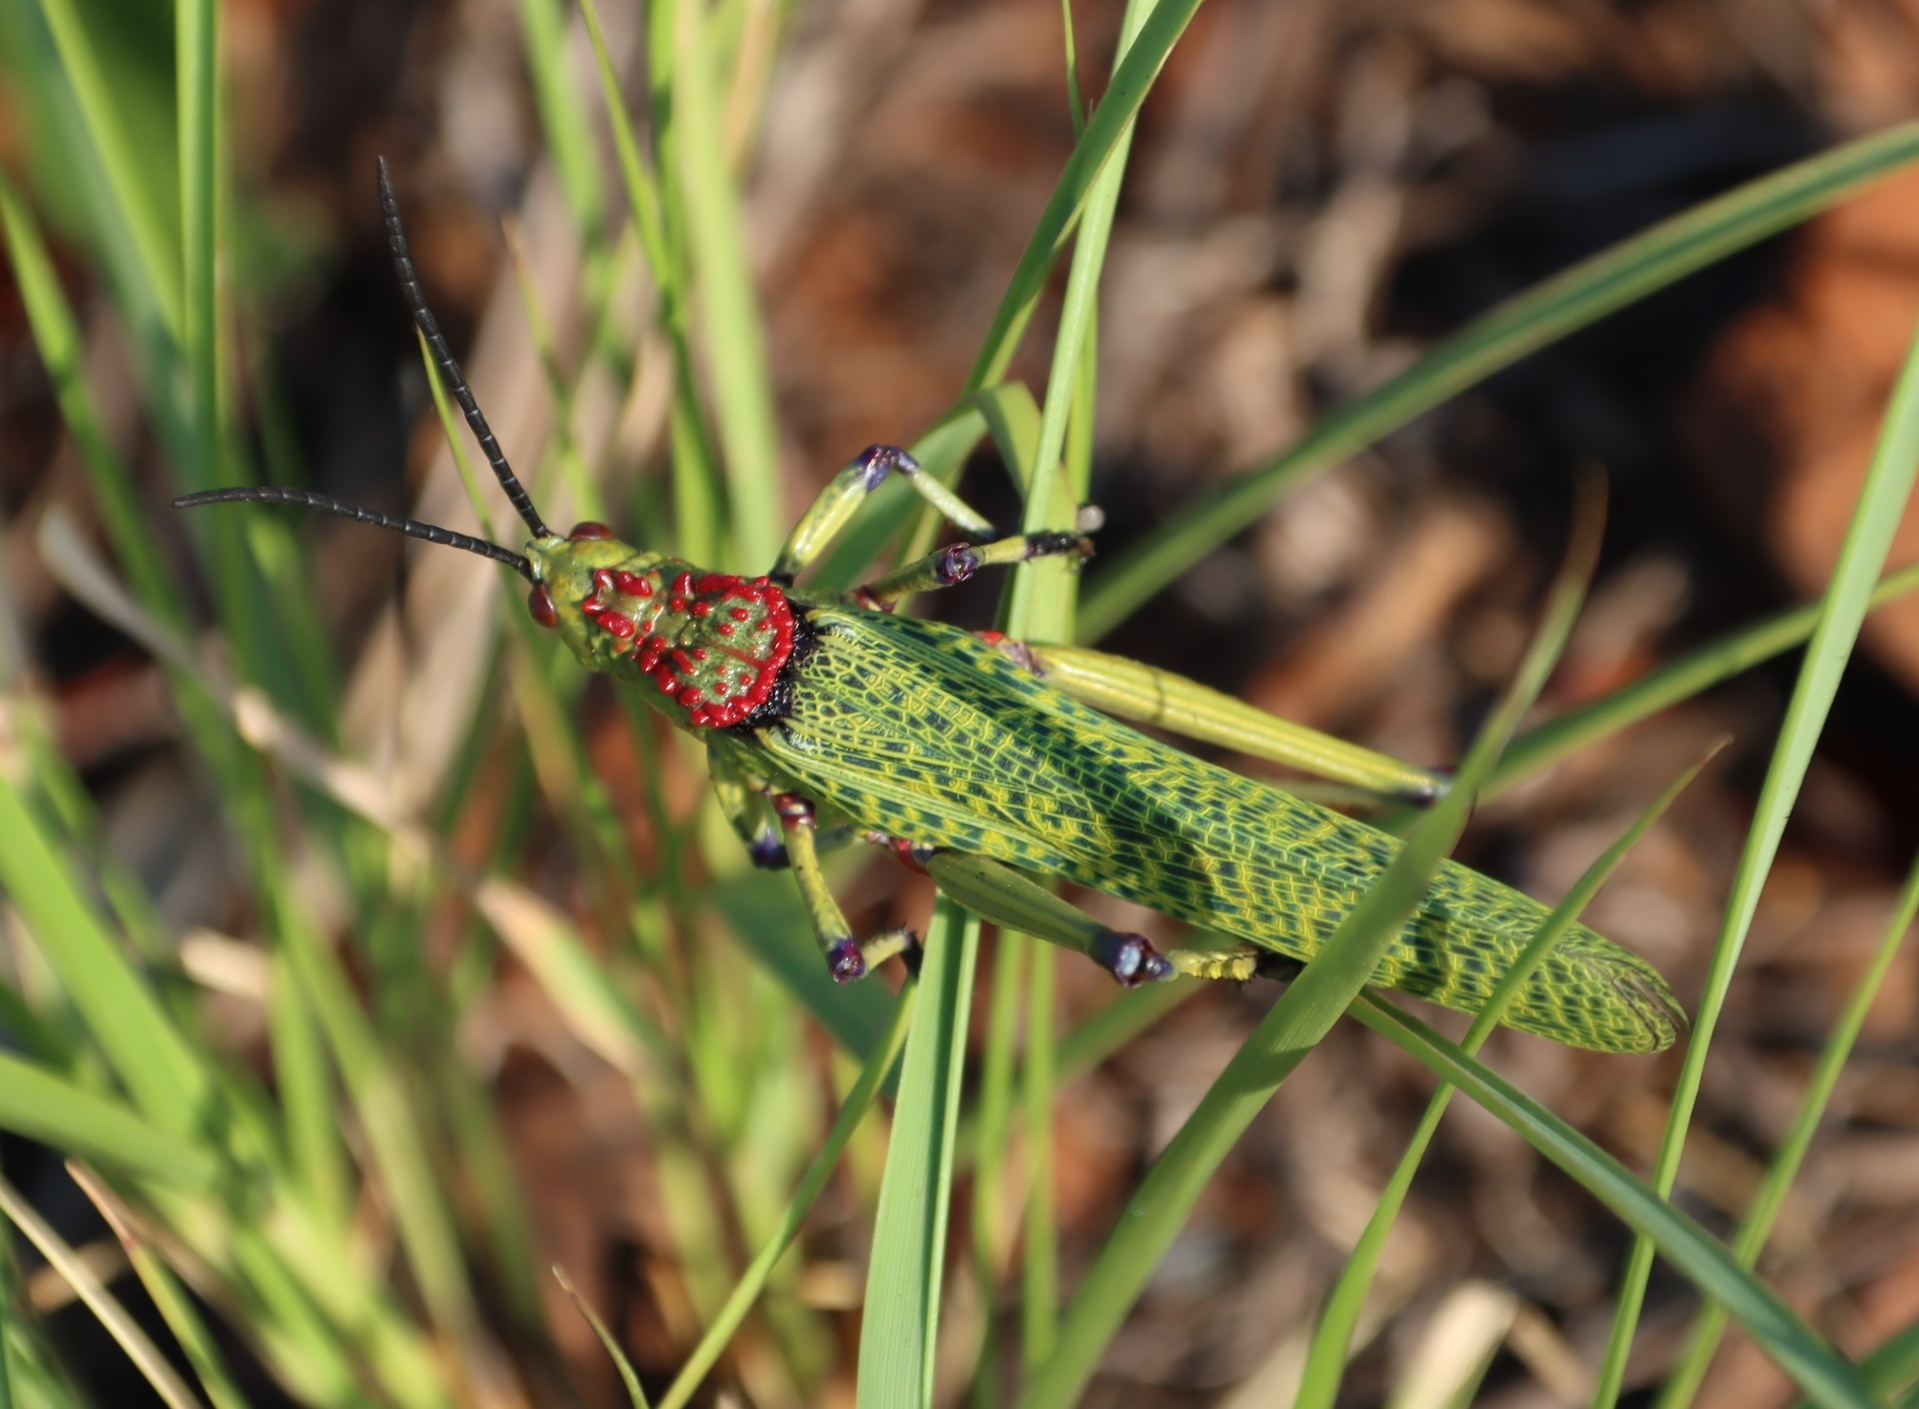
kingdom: Animalia
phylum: Arthropoda
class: Insecta
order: Orthoptera
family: Pyrgomorphidae
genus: Phymateus
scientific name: Phymateus viridipes
